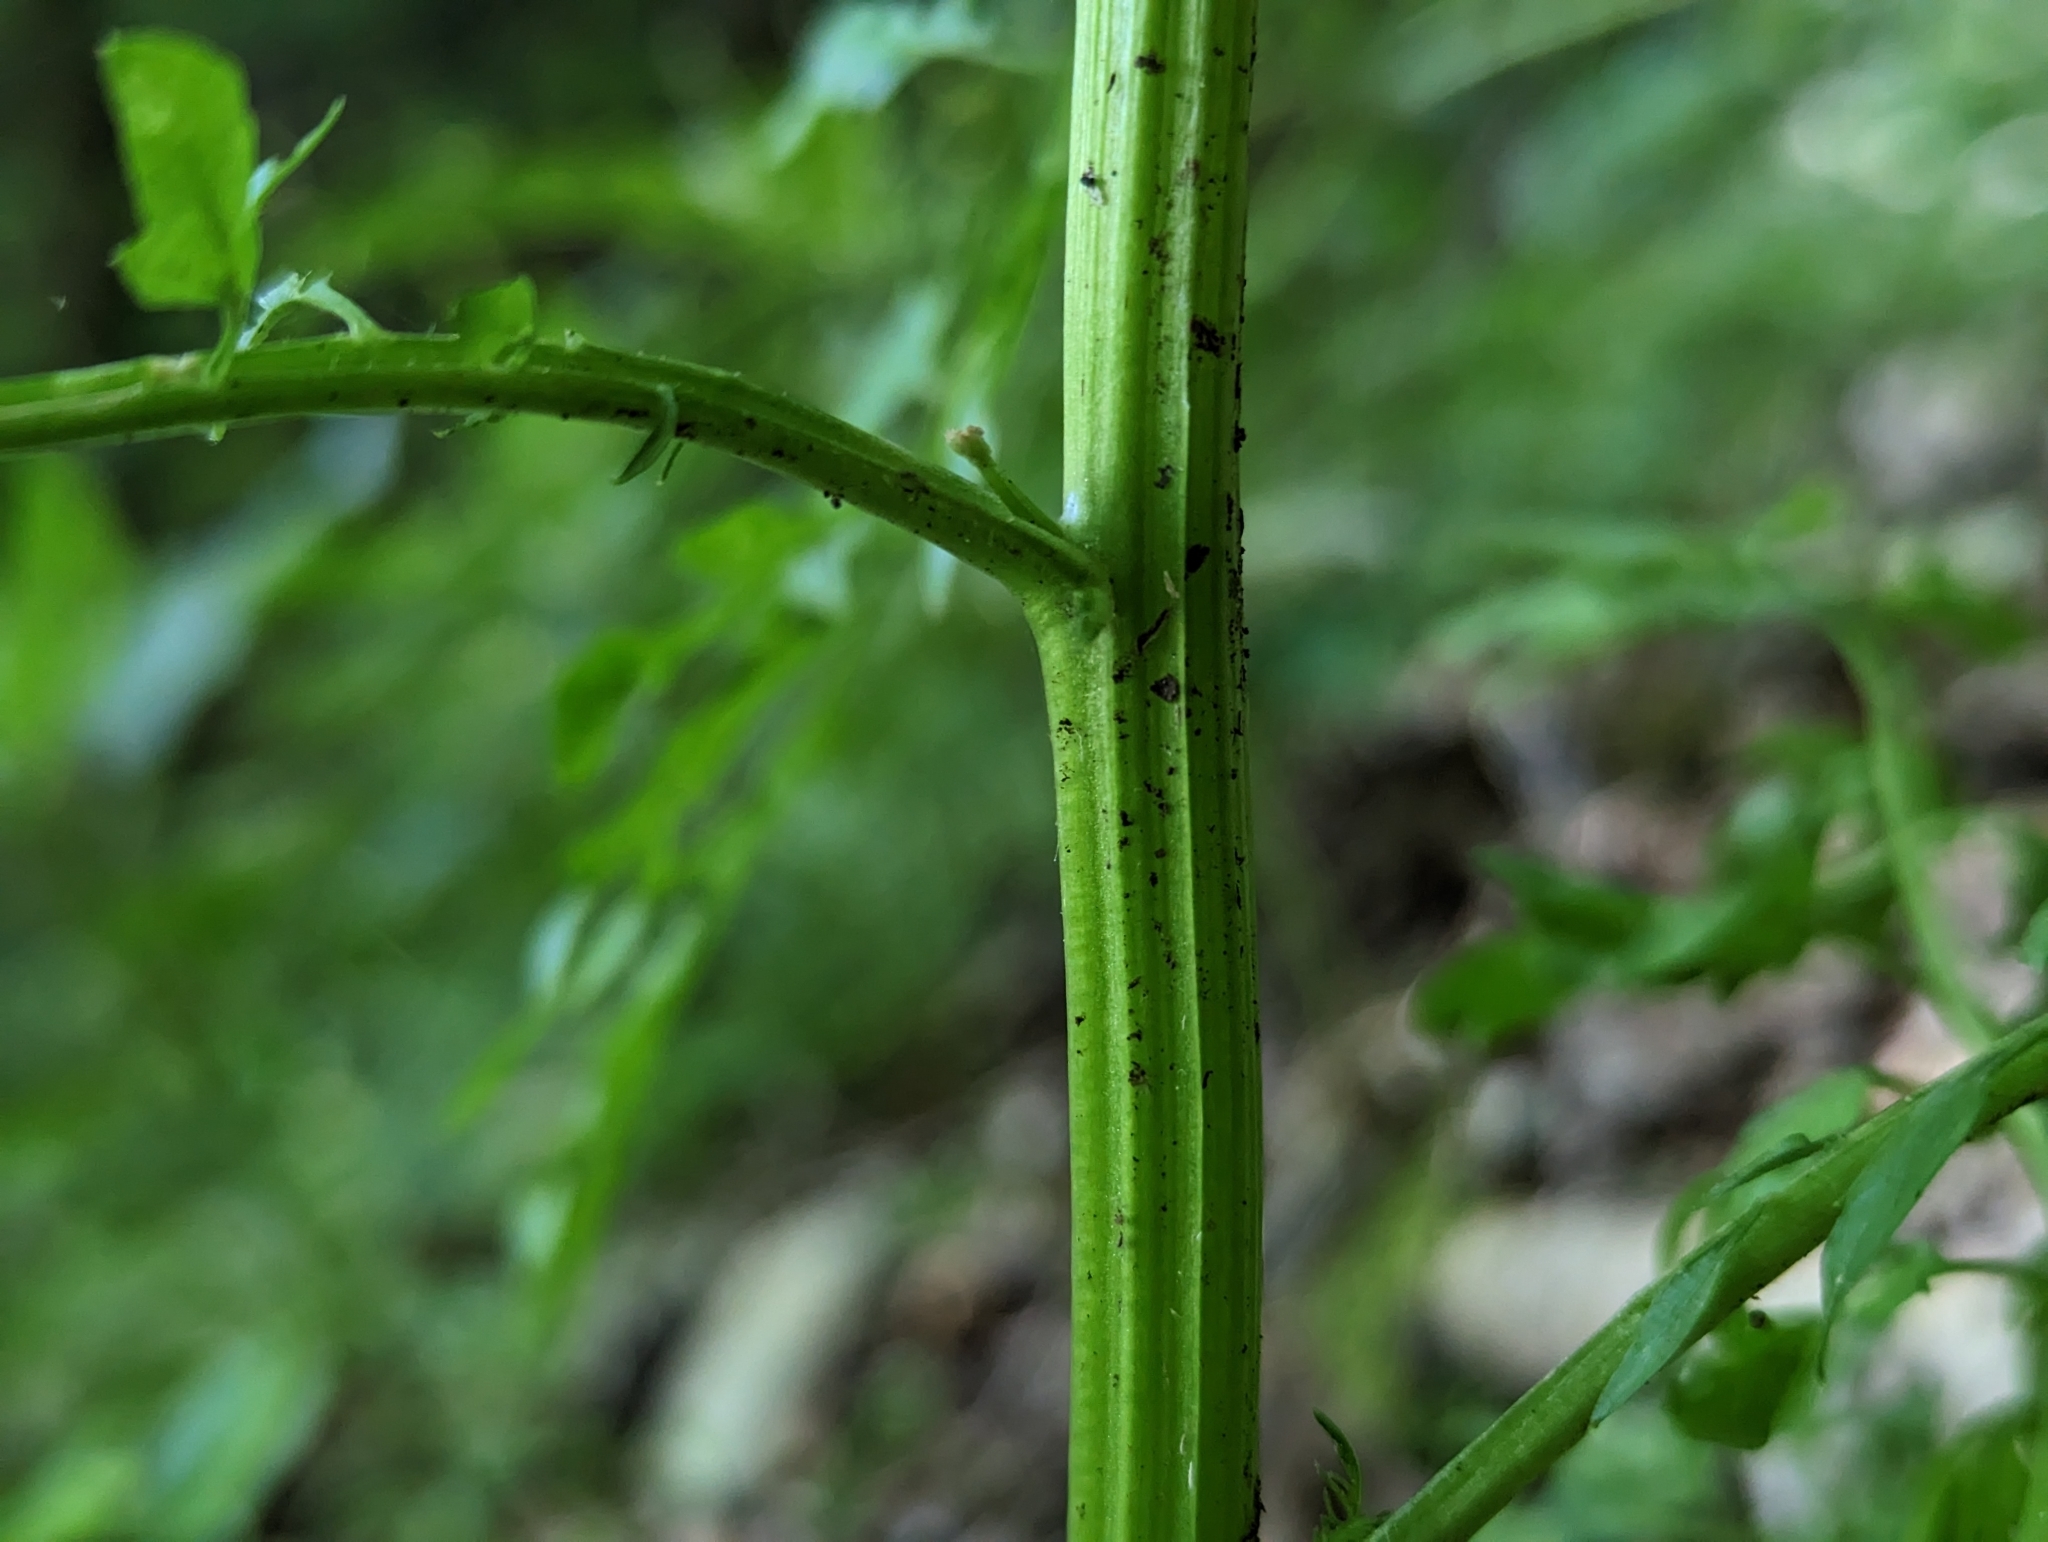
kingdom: Plantae
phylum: Tracheophyta
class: Magnoliopsida
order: Brassicales
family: Brassicaceae
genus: Cardamine
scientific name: Cardamine impatiens
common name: Narrow-leaved bitter-cress
